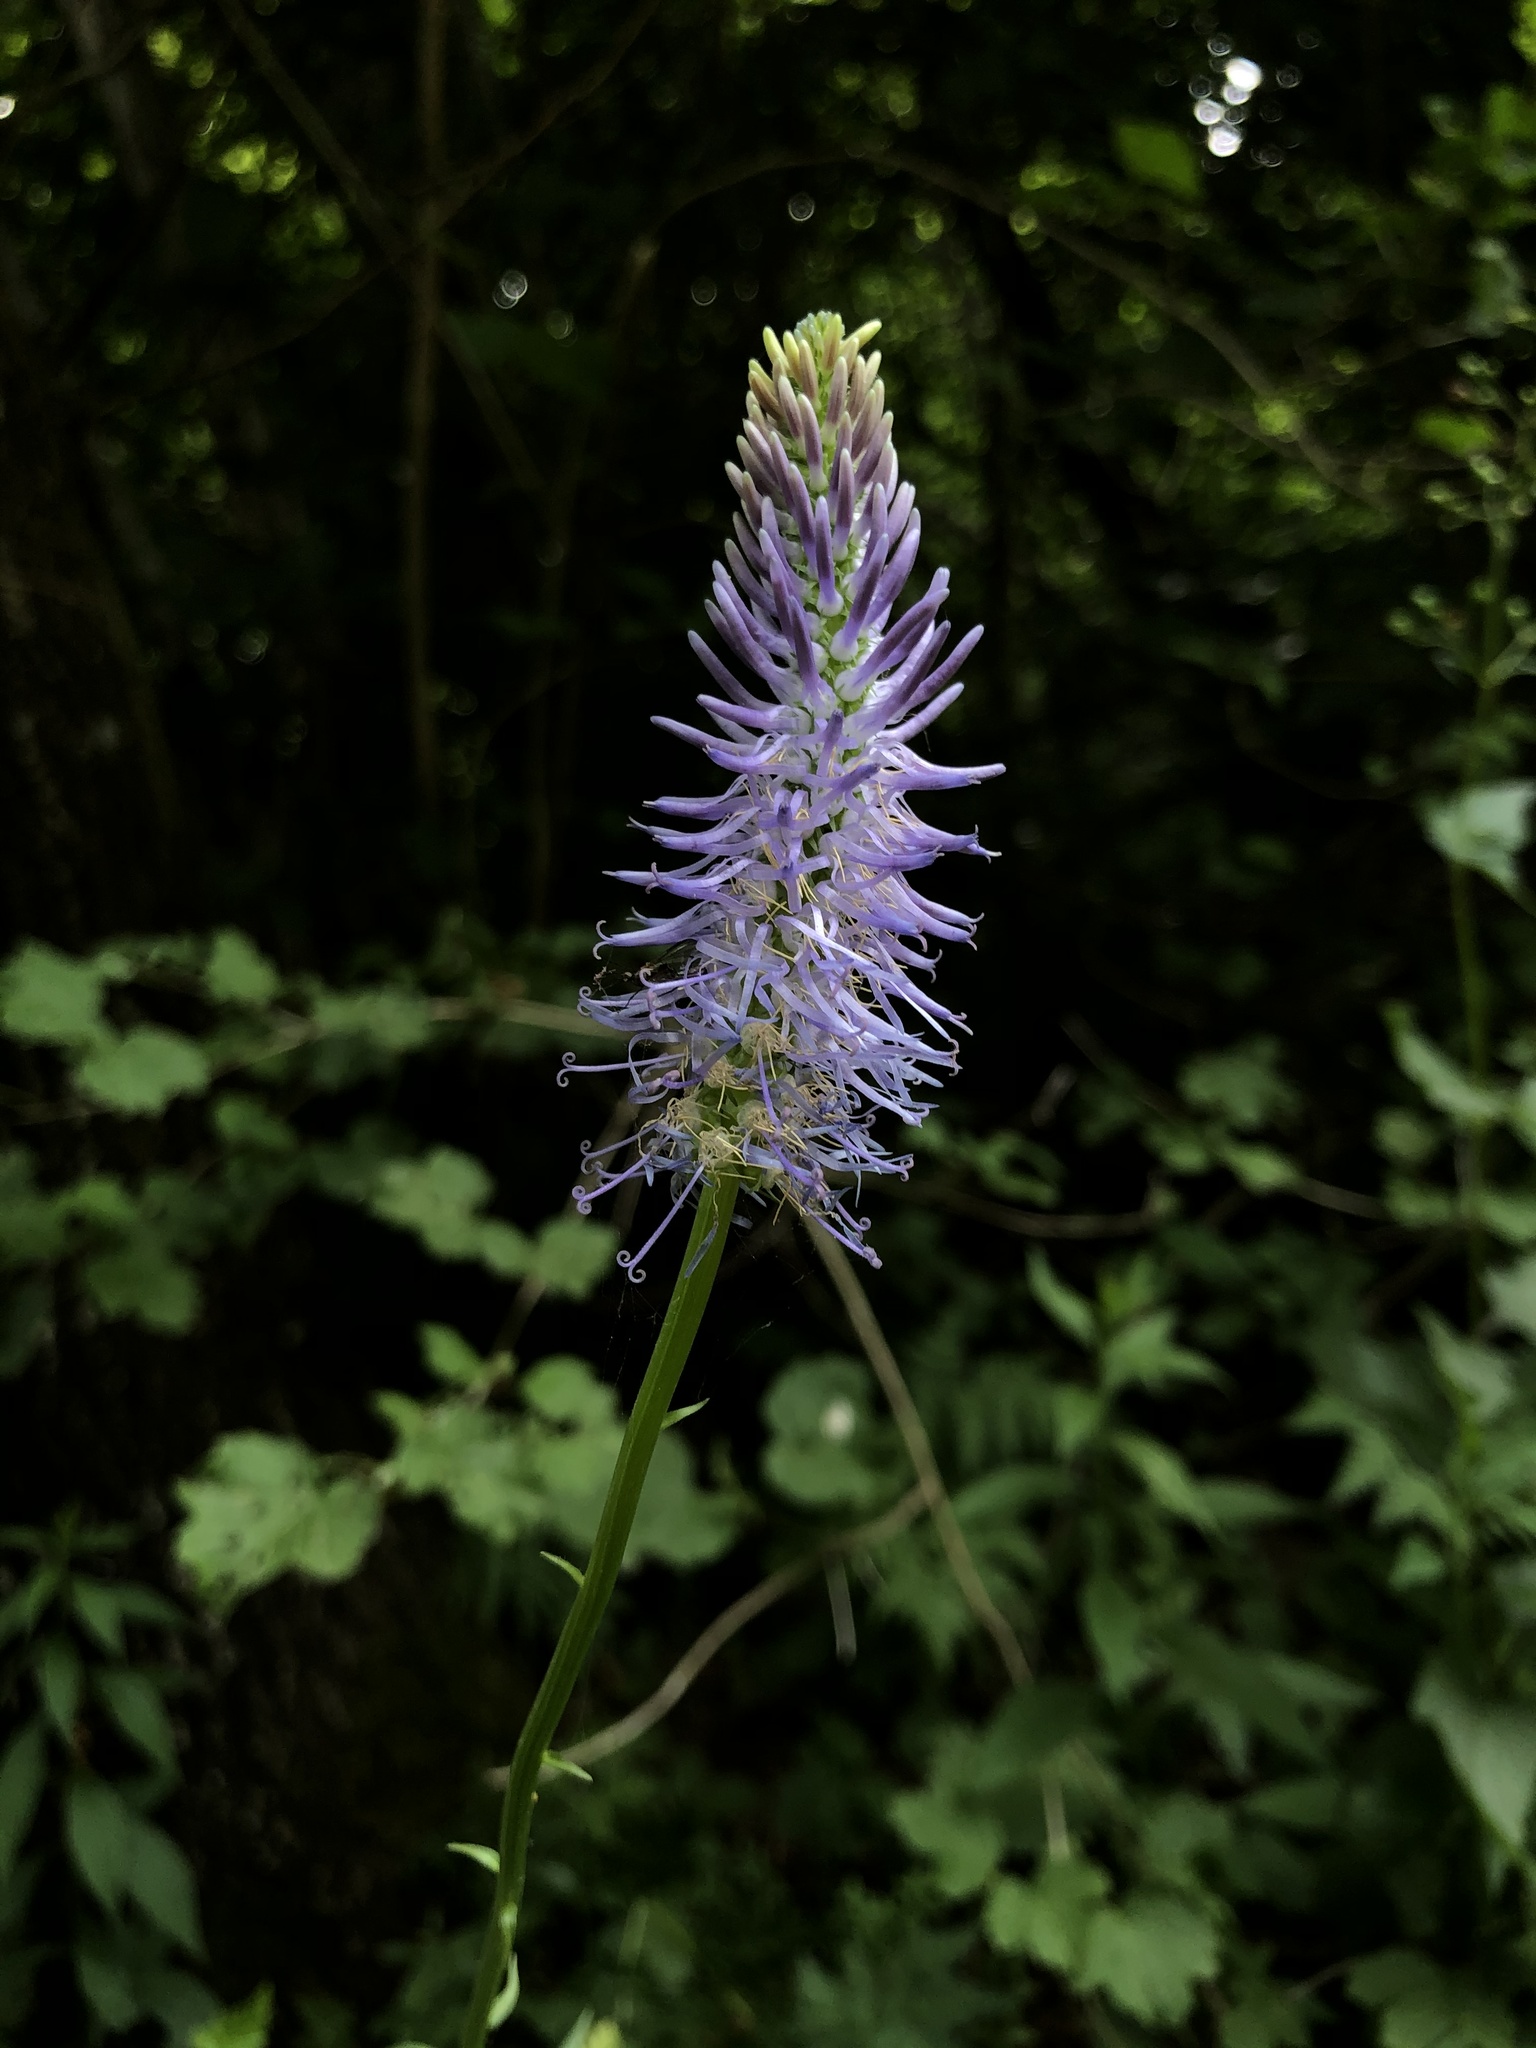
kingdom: Plantae
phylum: Tracheophyta
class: Magnoliopsida
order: Asterales
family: Campanulaceae
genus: Phyteuma
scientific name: Phyteuma persicifolium
